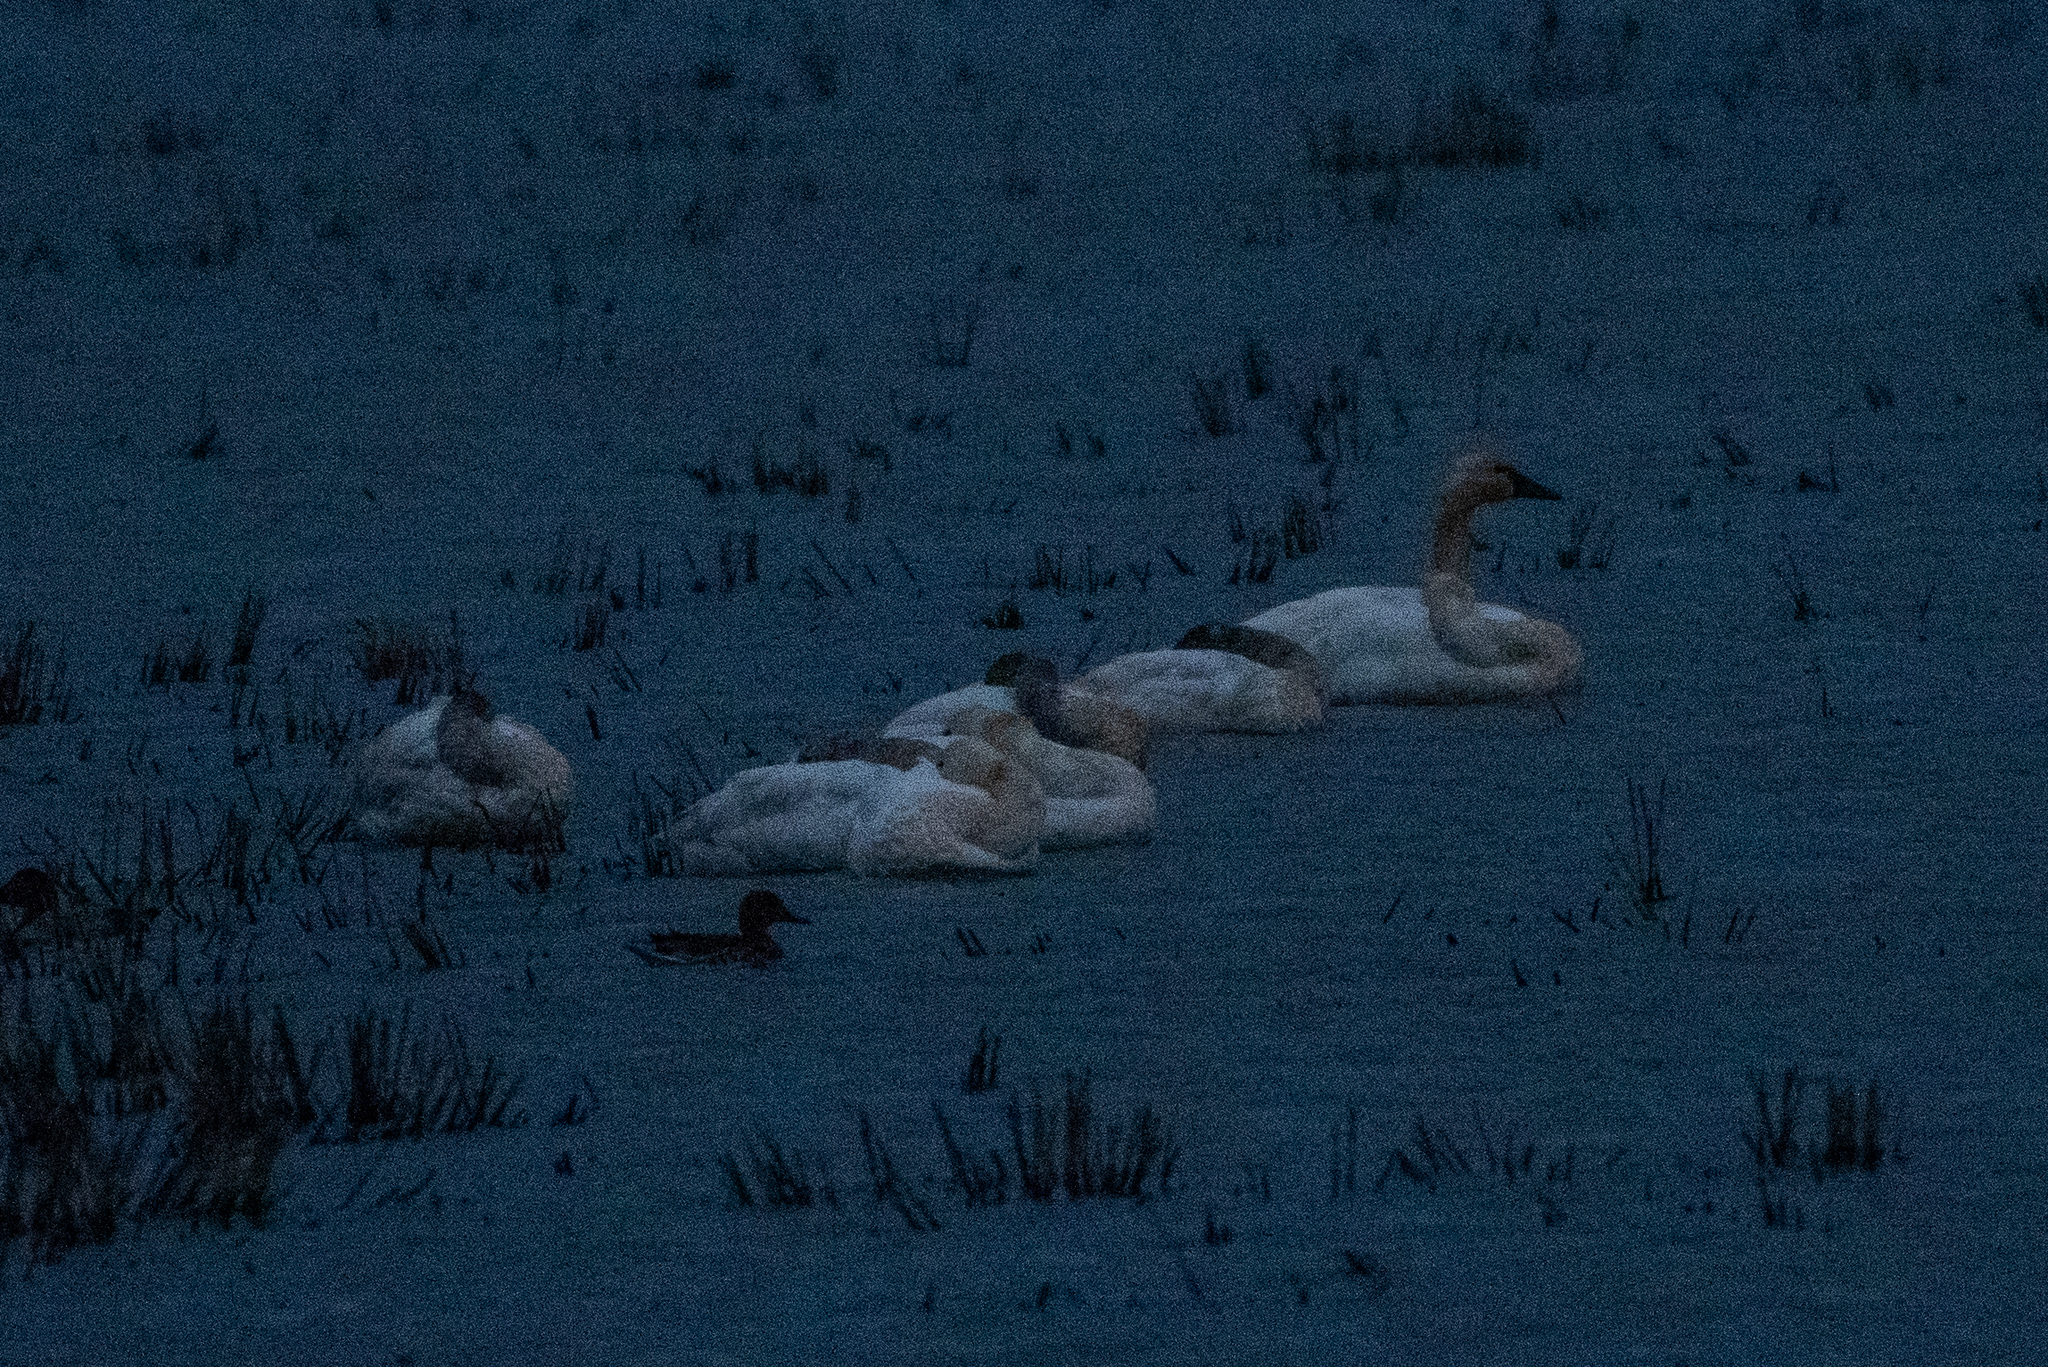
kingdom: Animalia
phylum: Chordata
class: Aves
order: Anseriformes
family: Anatidae
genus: Cygnus
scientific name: Cygnus columbianus
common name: Tundra swan
